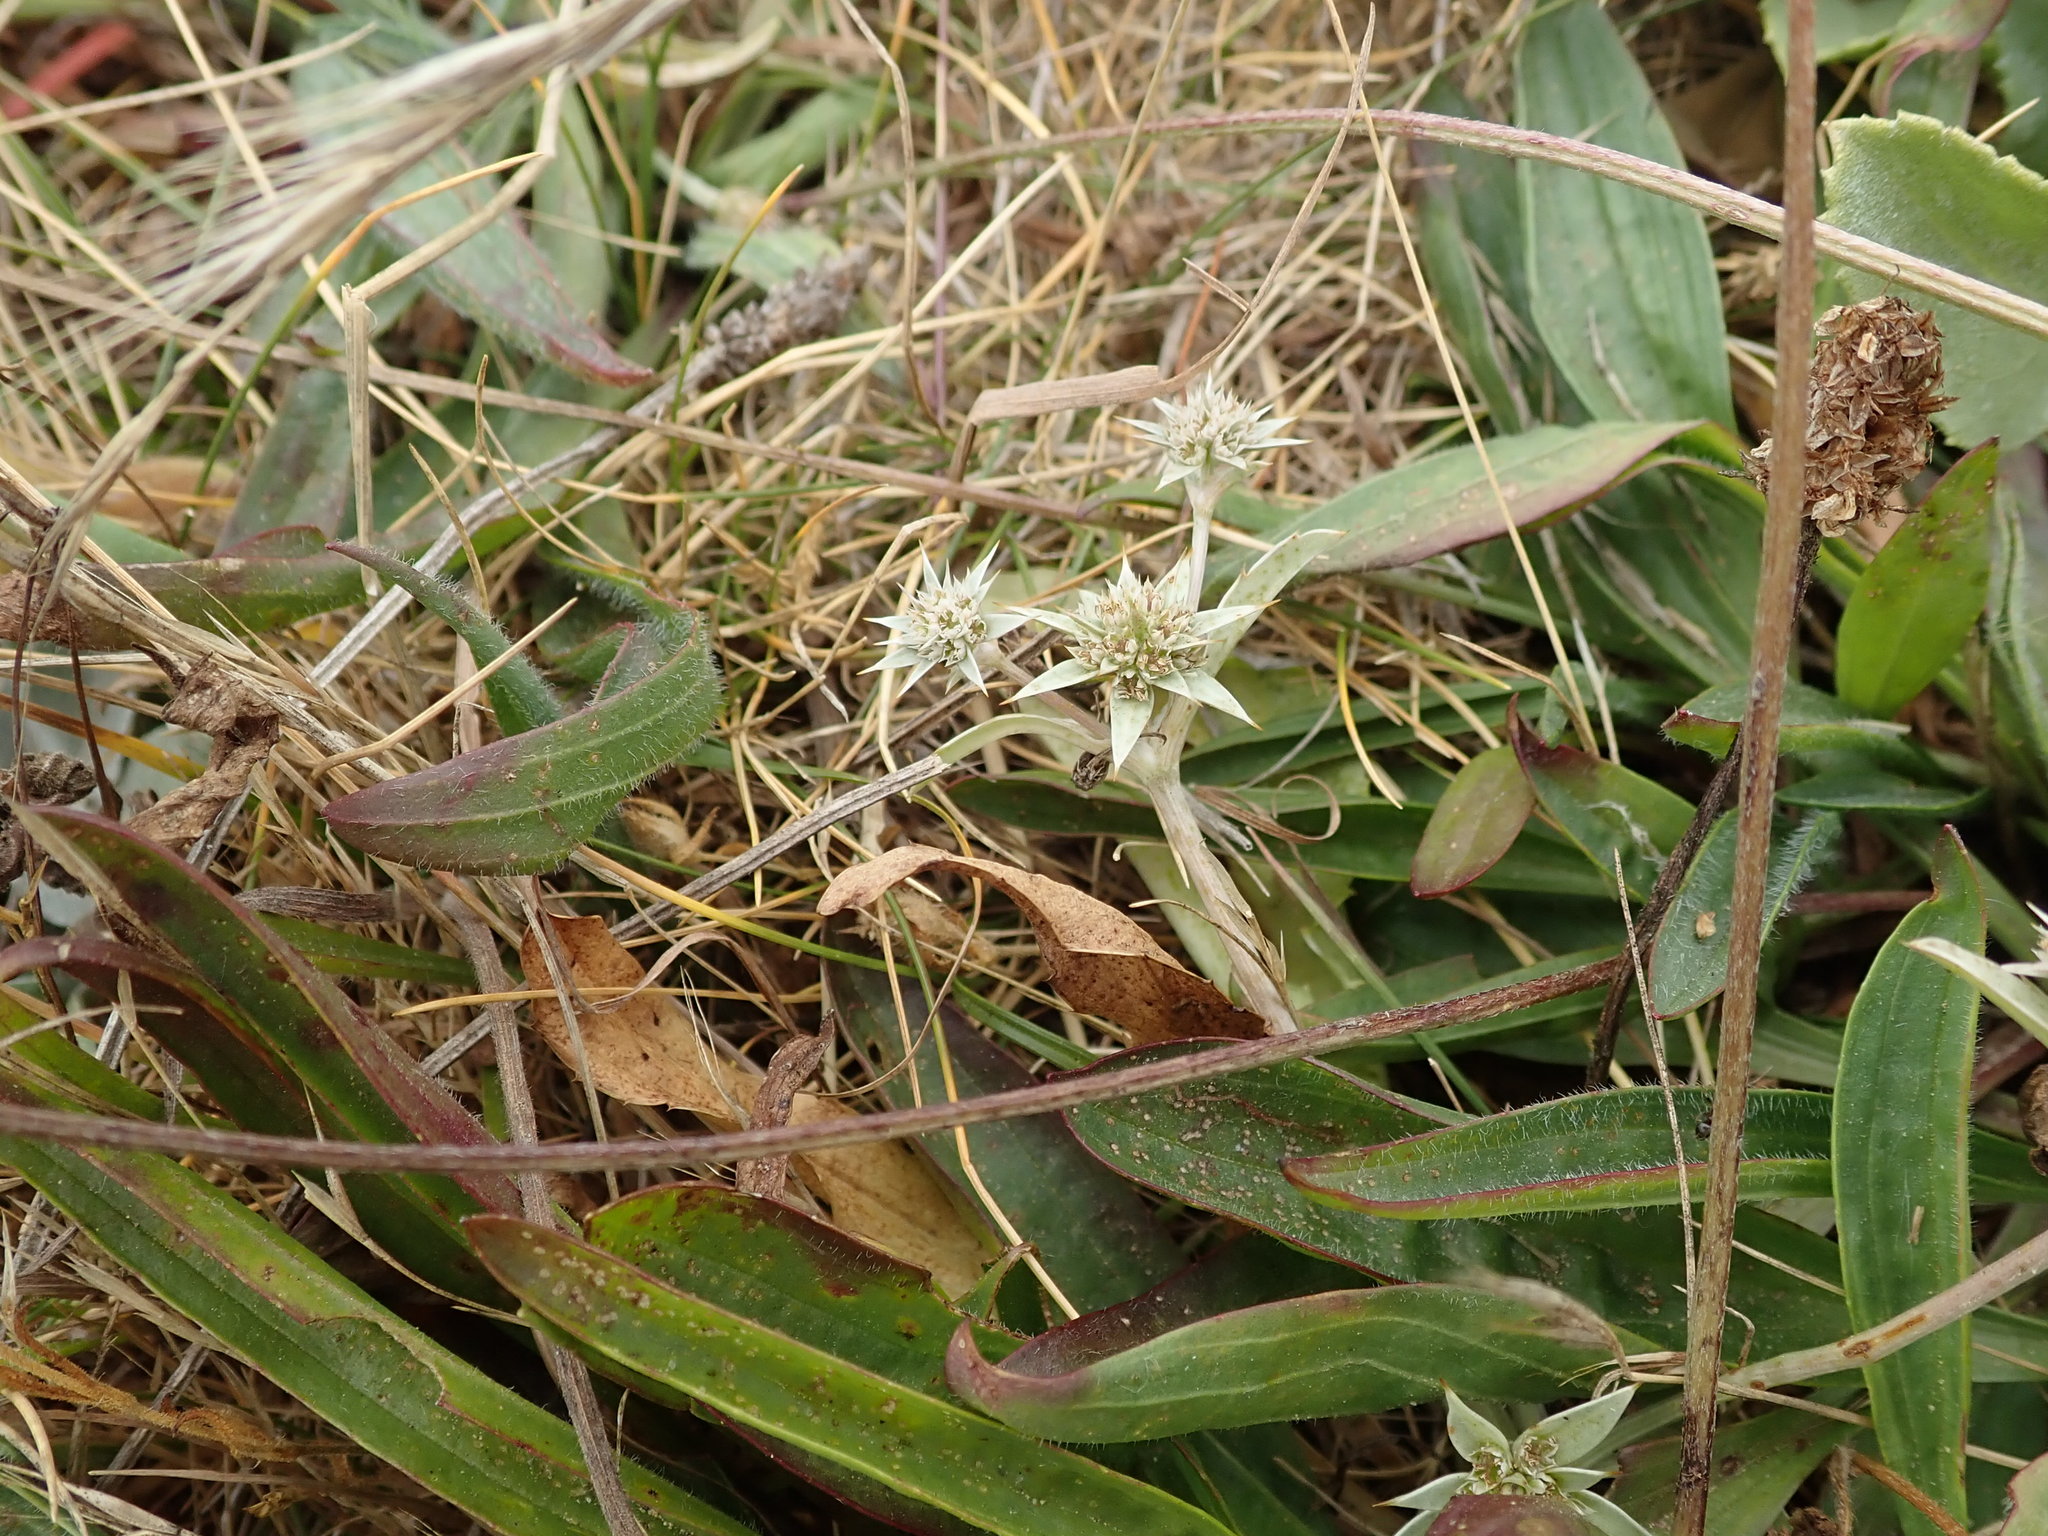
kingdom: Plantae
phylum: Tracheophyta
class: Magnoliopsida
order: Apiales
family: Apiaceae
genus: Eryngium
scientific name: Eryngium armatum
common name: Coyote thistle
